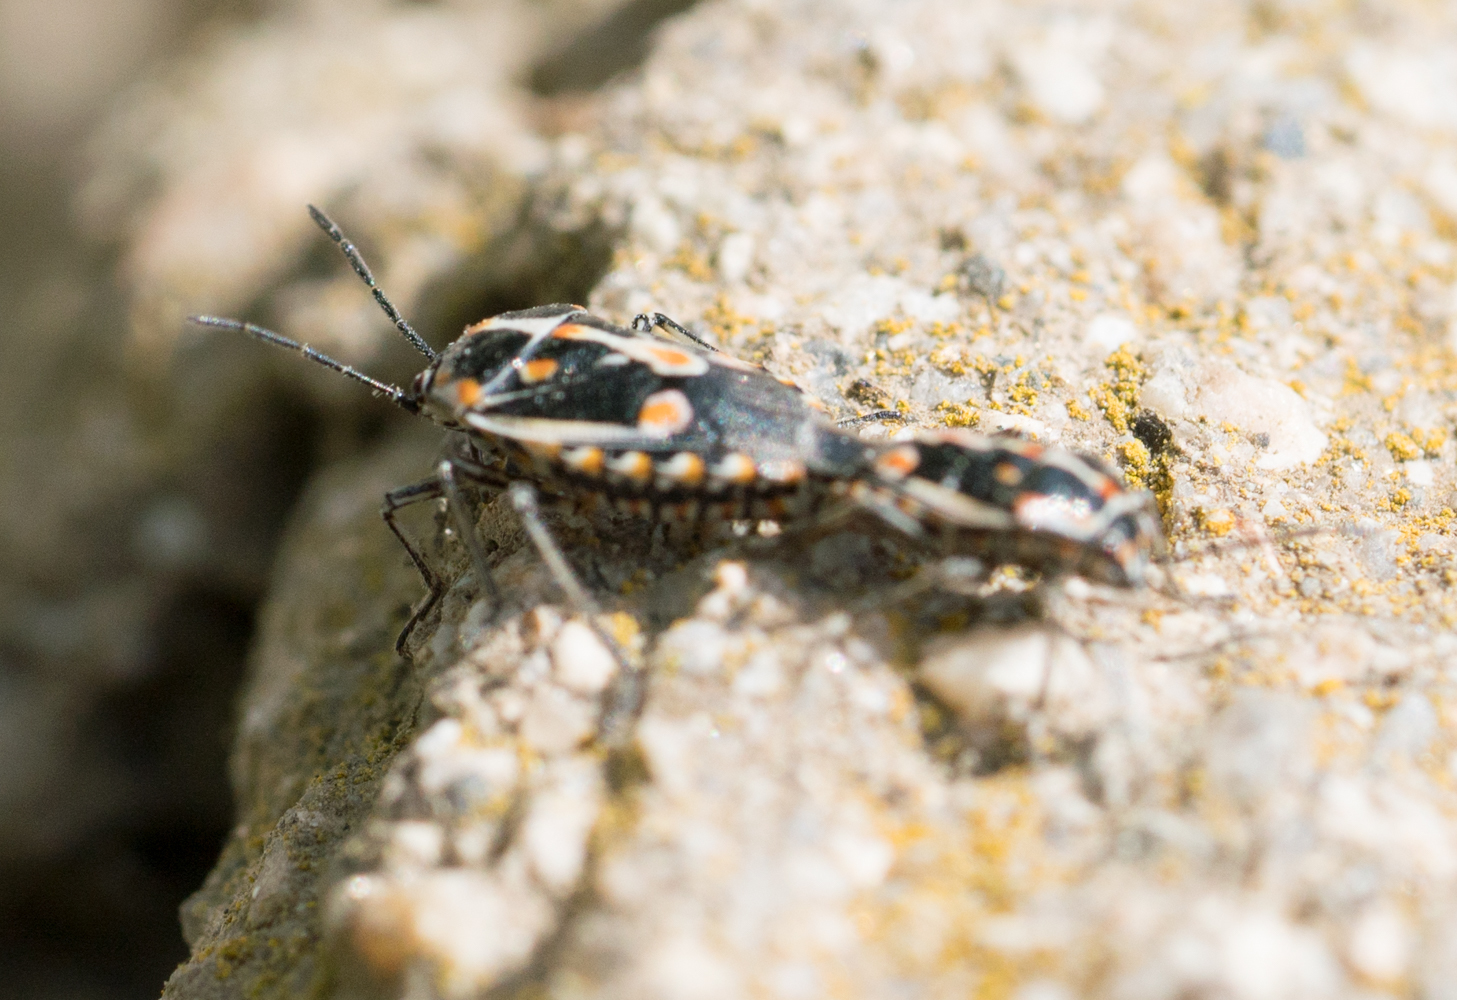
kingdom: Animalia
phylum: Arthropoda
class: Insecta
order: Hemiptera
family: Pentatomidae
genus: Bagrada
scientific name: Bagrada hilaris
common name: Bagrada bug
